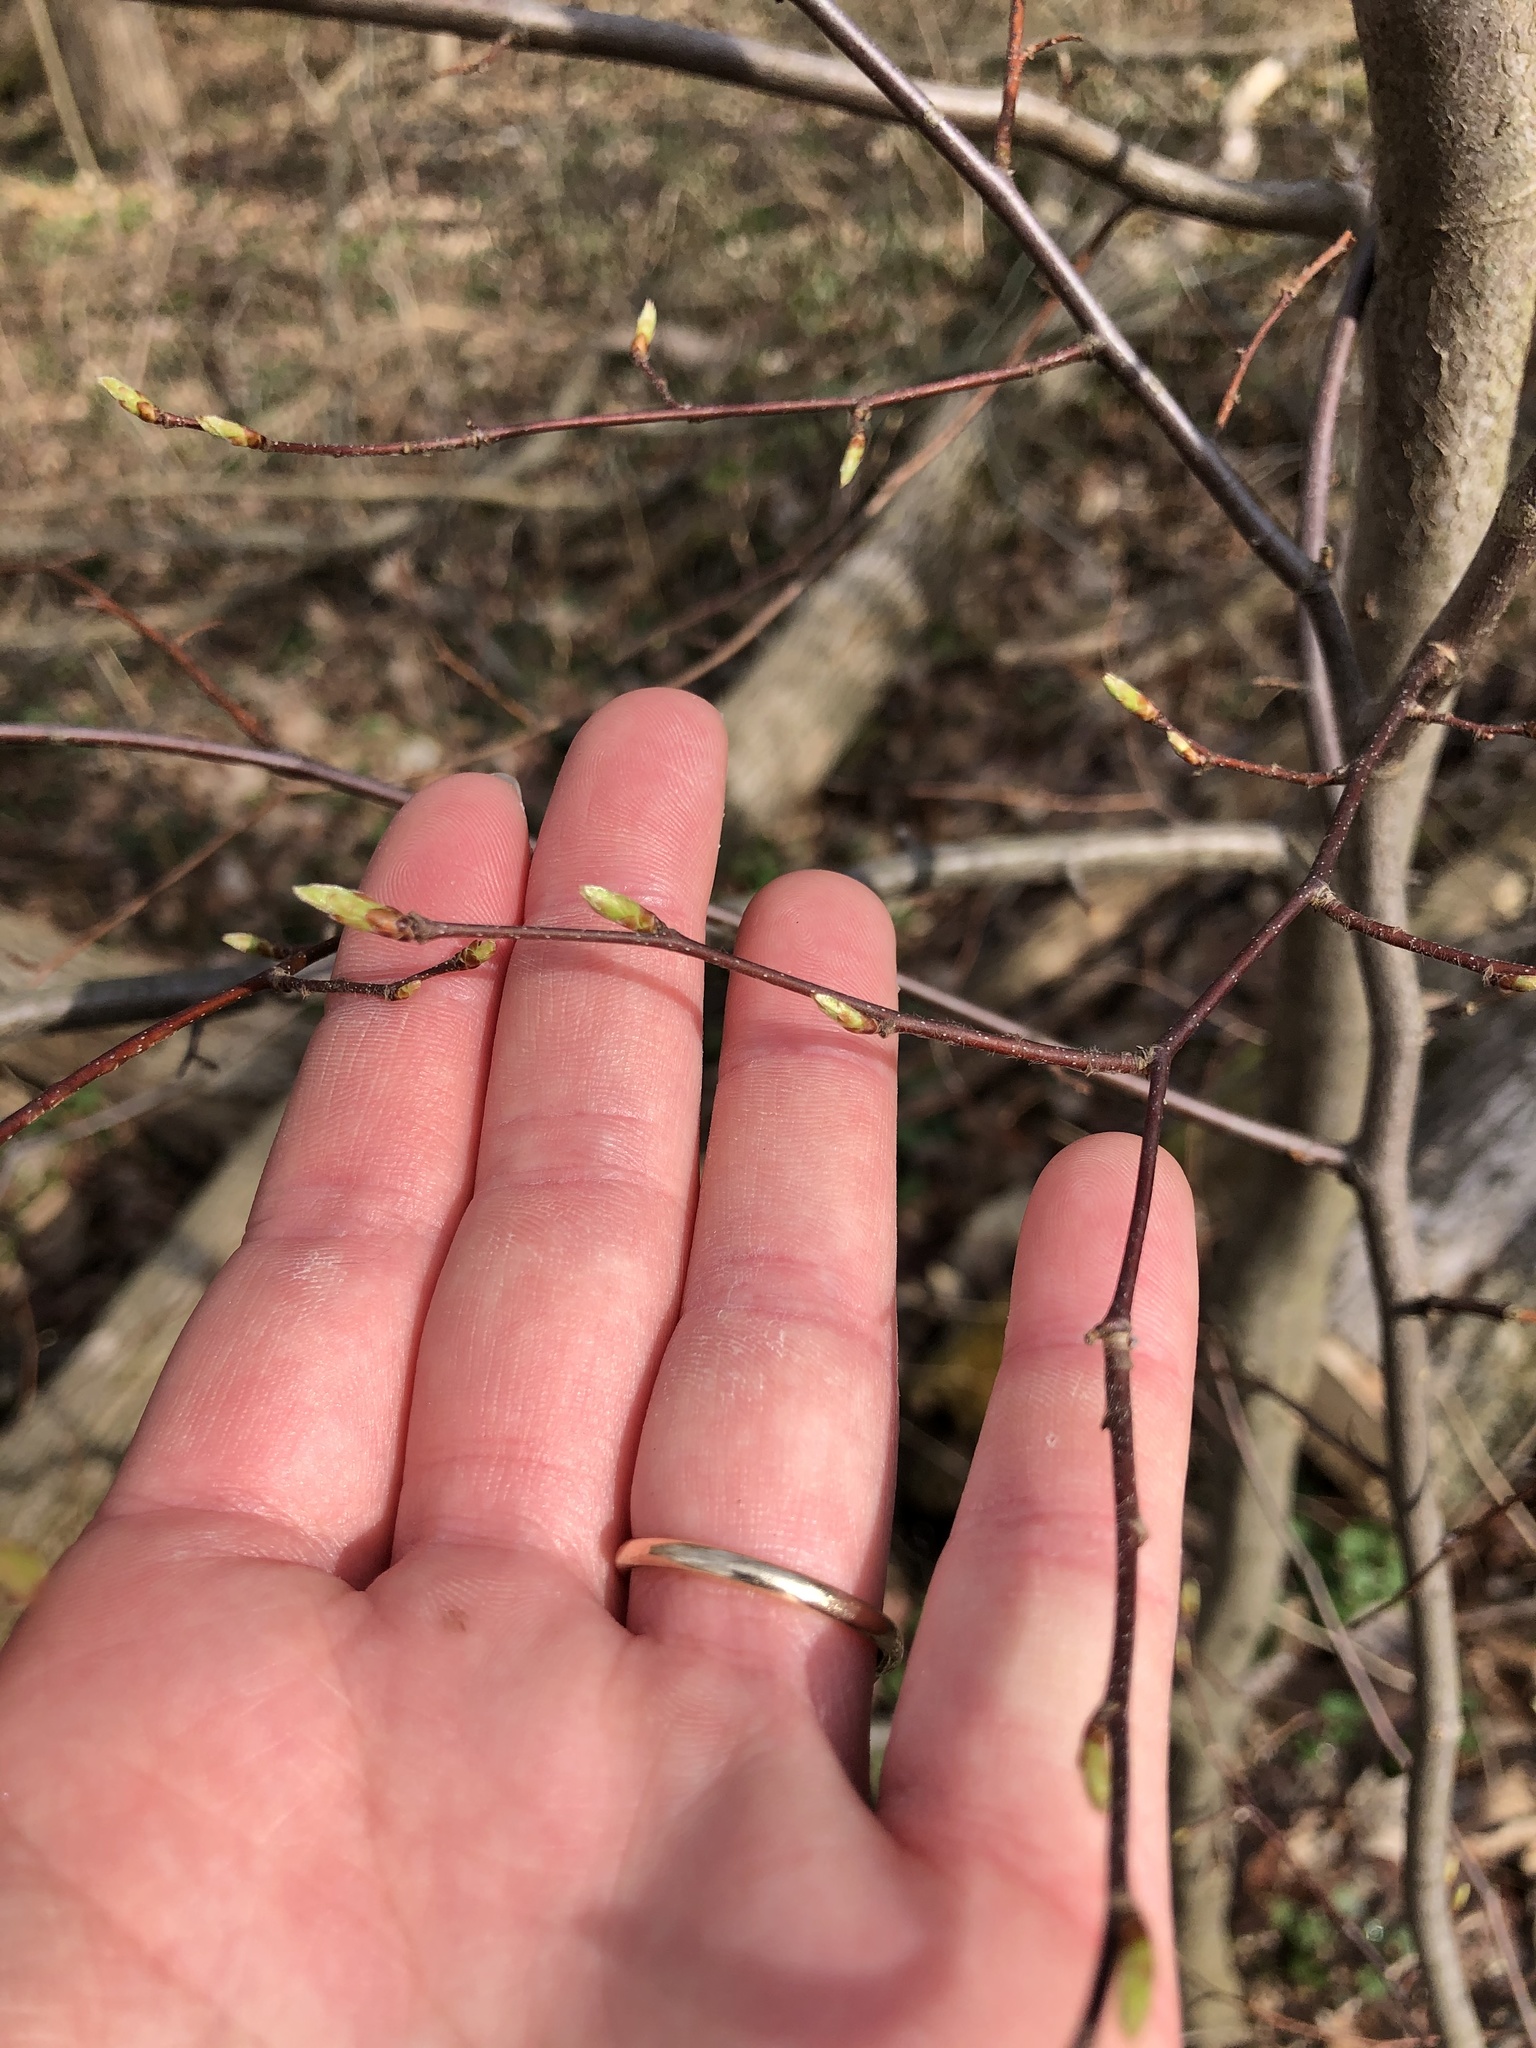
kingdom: Plantae
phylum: Tracheophyta
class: Magnoliopsida
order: Fagales
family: Betulaceae
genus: Carpinus
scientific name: Carpinus caroliniana
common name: American hornbeam
